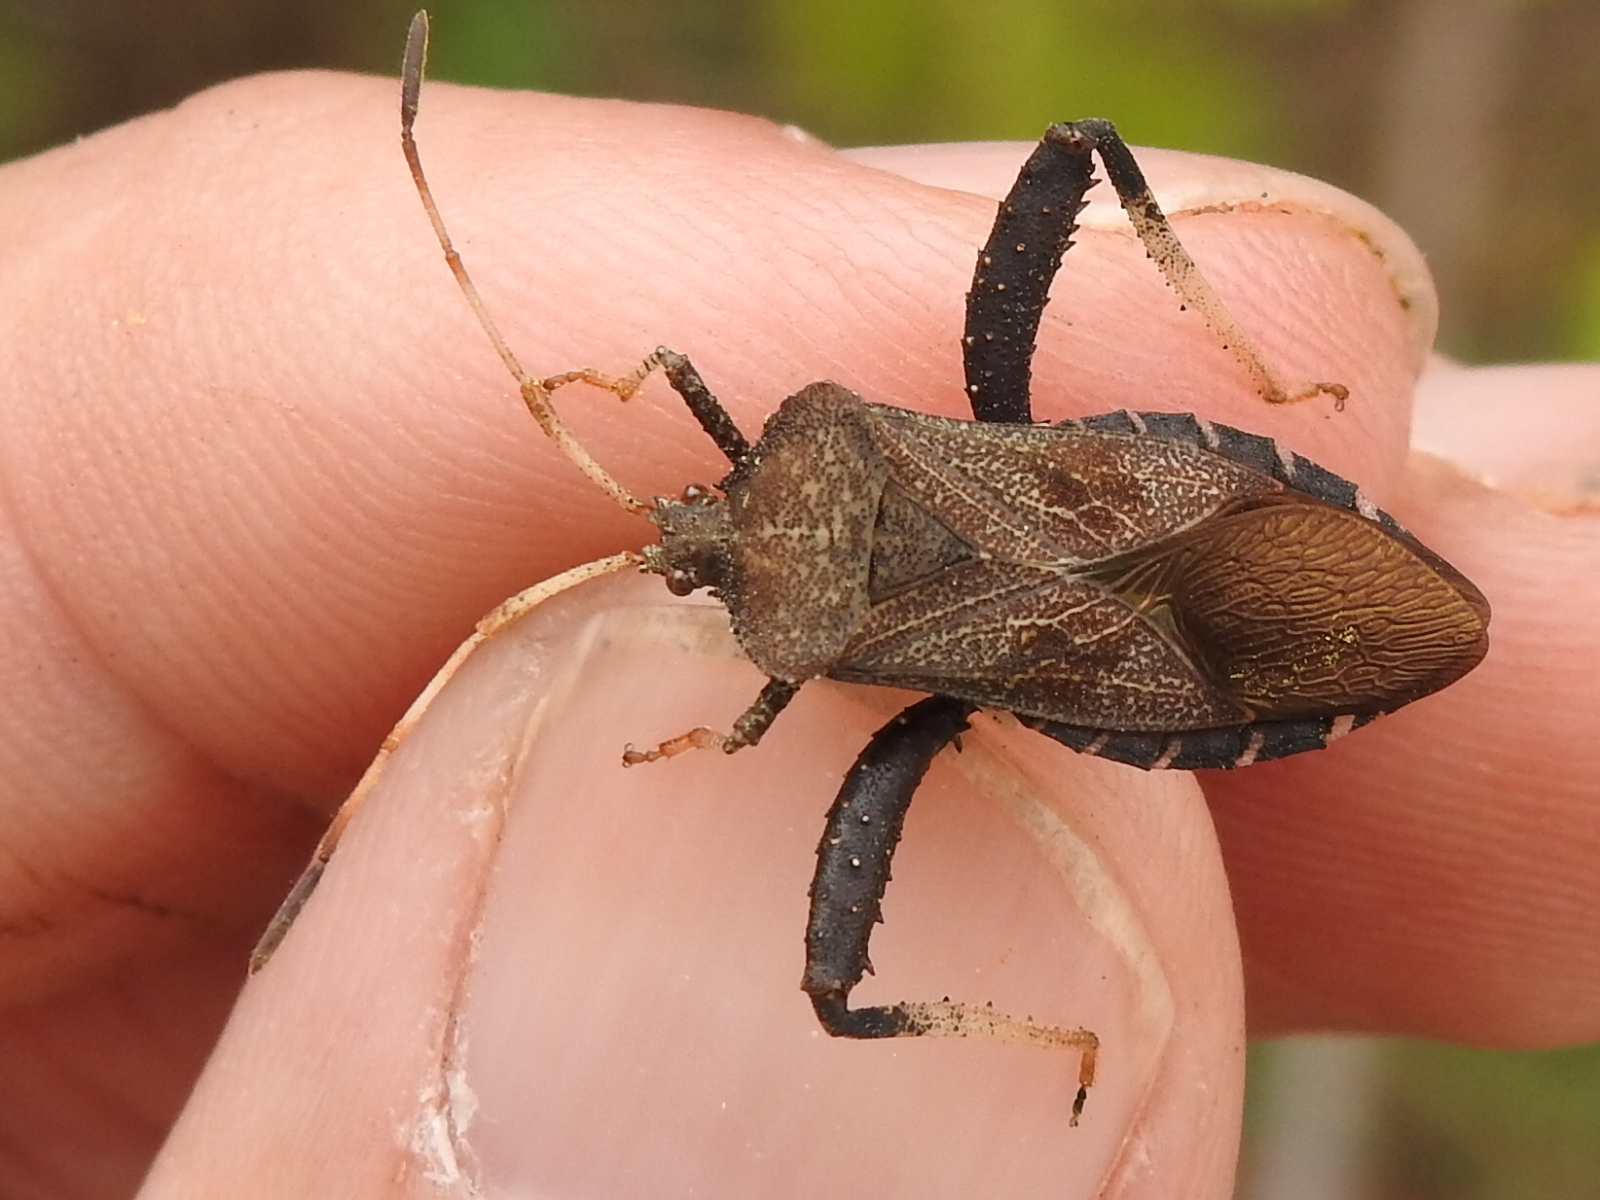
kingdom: Animalia
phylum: Arthropoda
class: Insecta
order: Hemiptera
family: Coreidae
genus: Euthochtha
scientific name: Euthochtha galeator
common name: Helmeted squash bug
